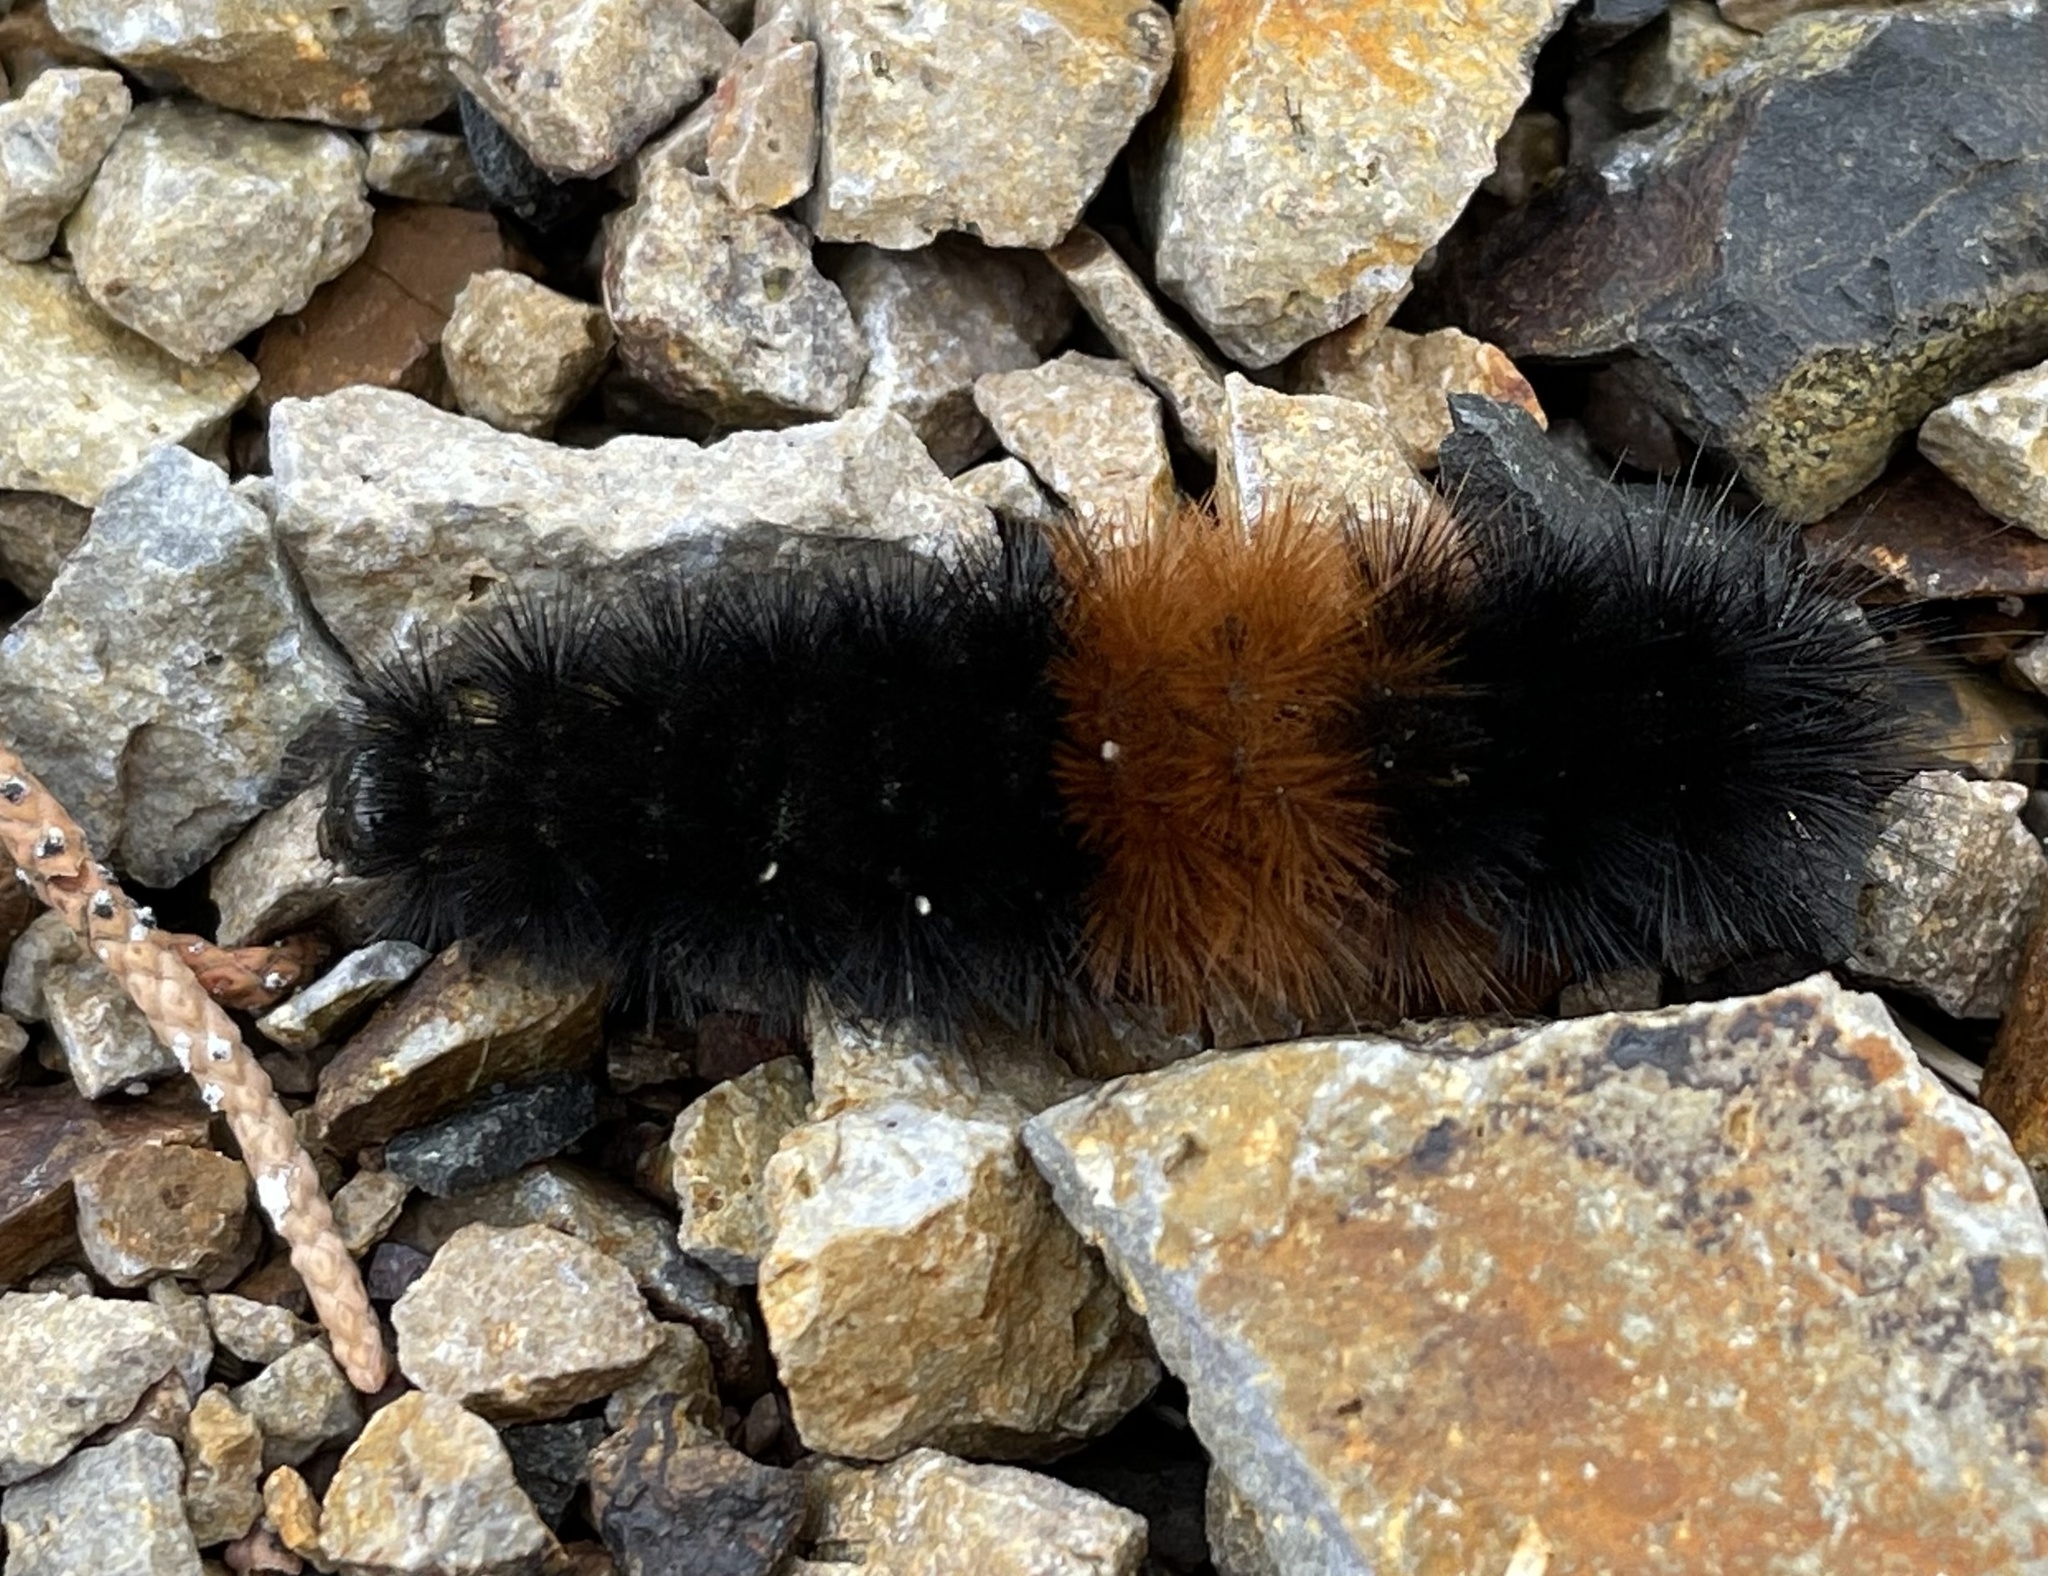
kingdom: Animalia
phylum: Arthropoda
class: Insecta
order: Lepidoptera
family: Erebidae
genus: Pyrrharctia
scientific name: Pyrrharctia isabella
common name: Isabella tiger moth
